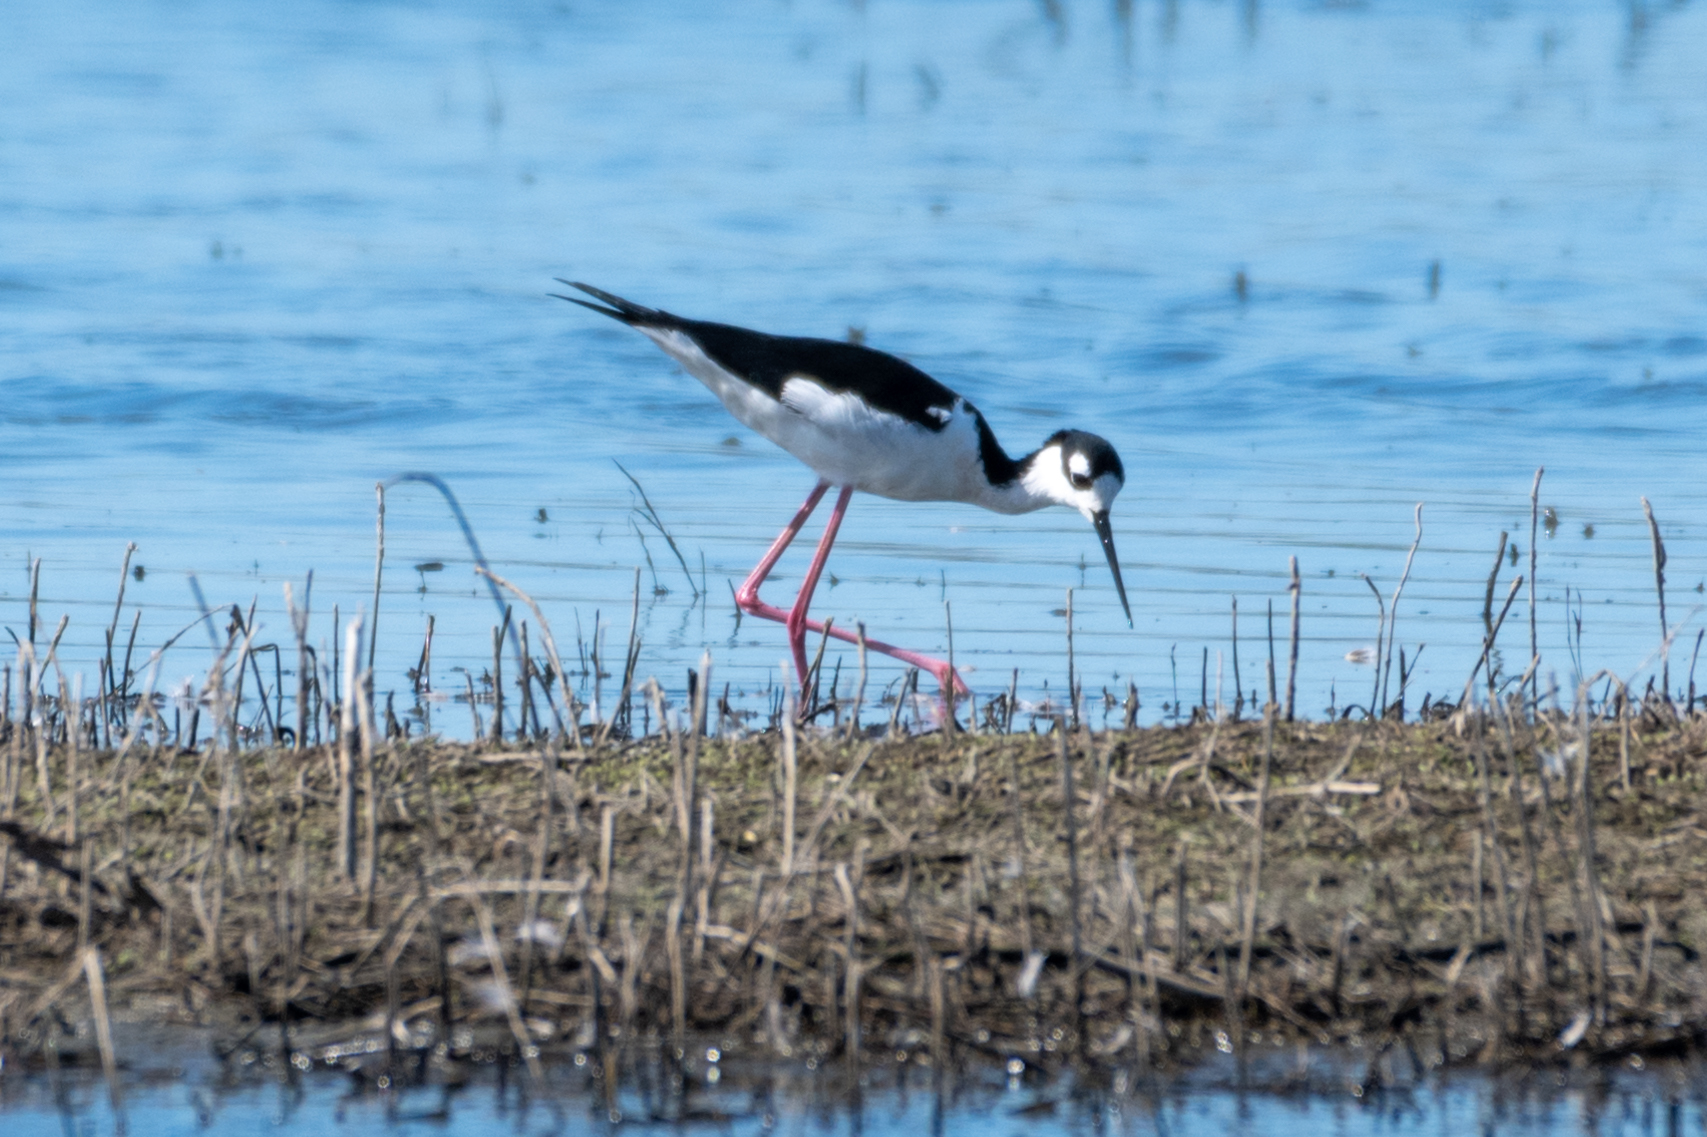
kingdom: Animalia
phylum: Chordata
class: Aves
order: Charadriiformes
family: Recurvirostridae
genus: Himantopus
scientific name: Himantopus mexicanus
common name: Black-necked stilt
